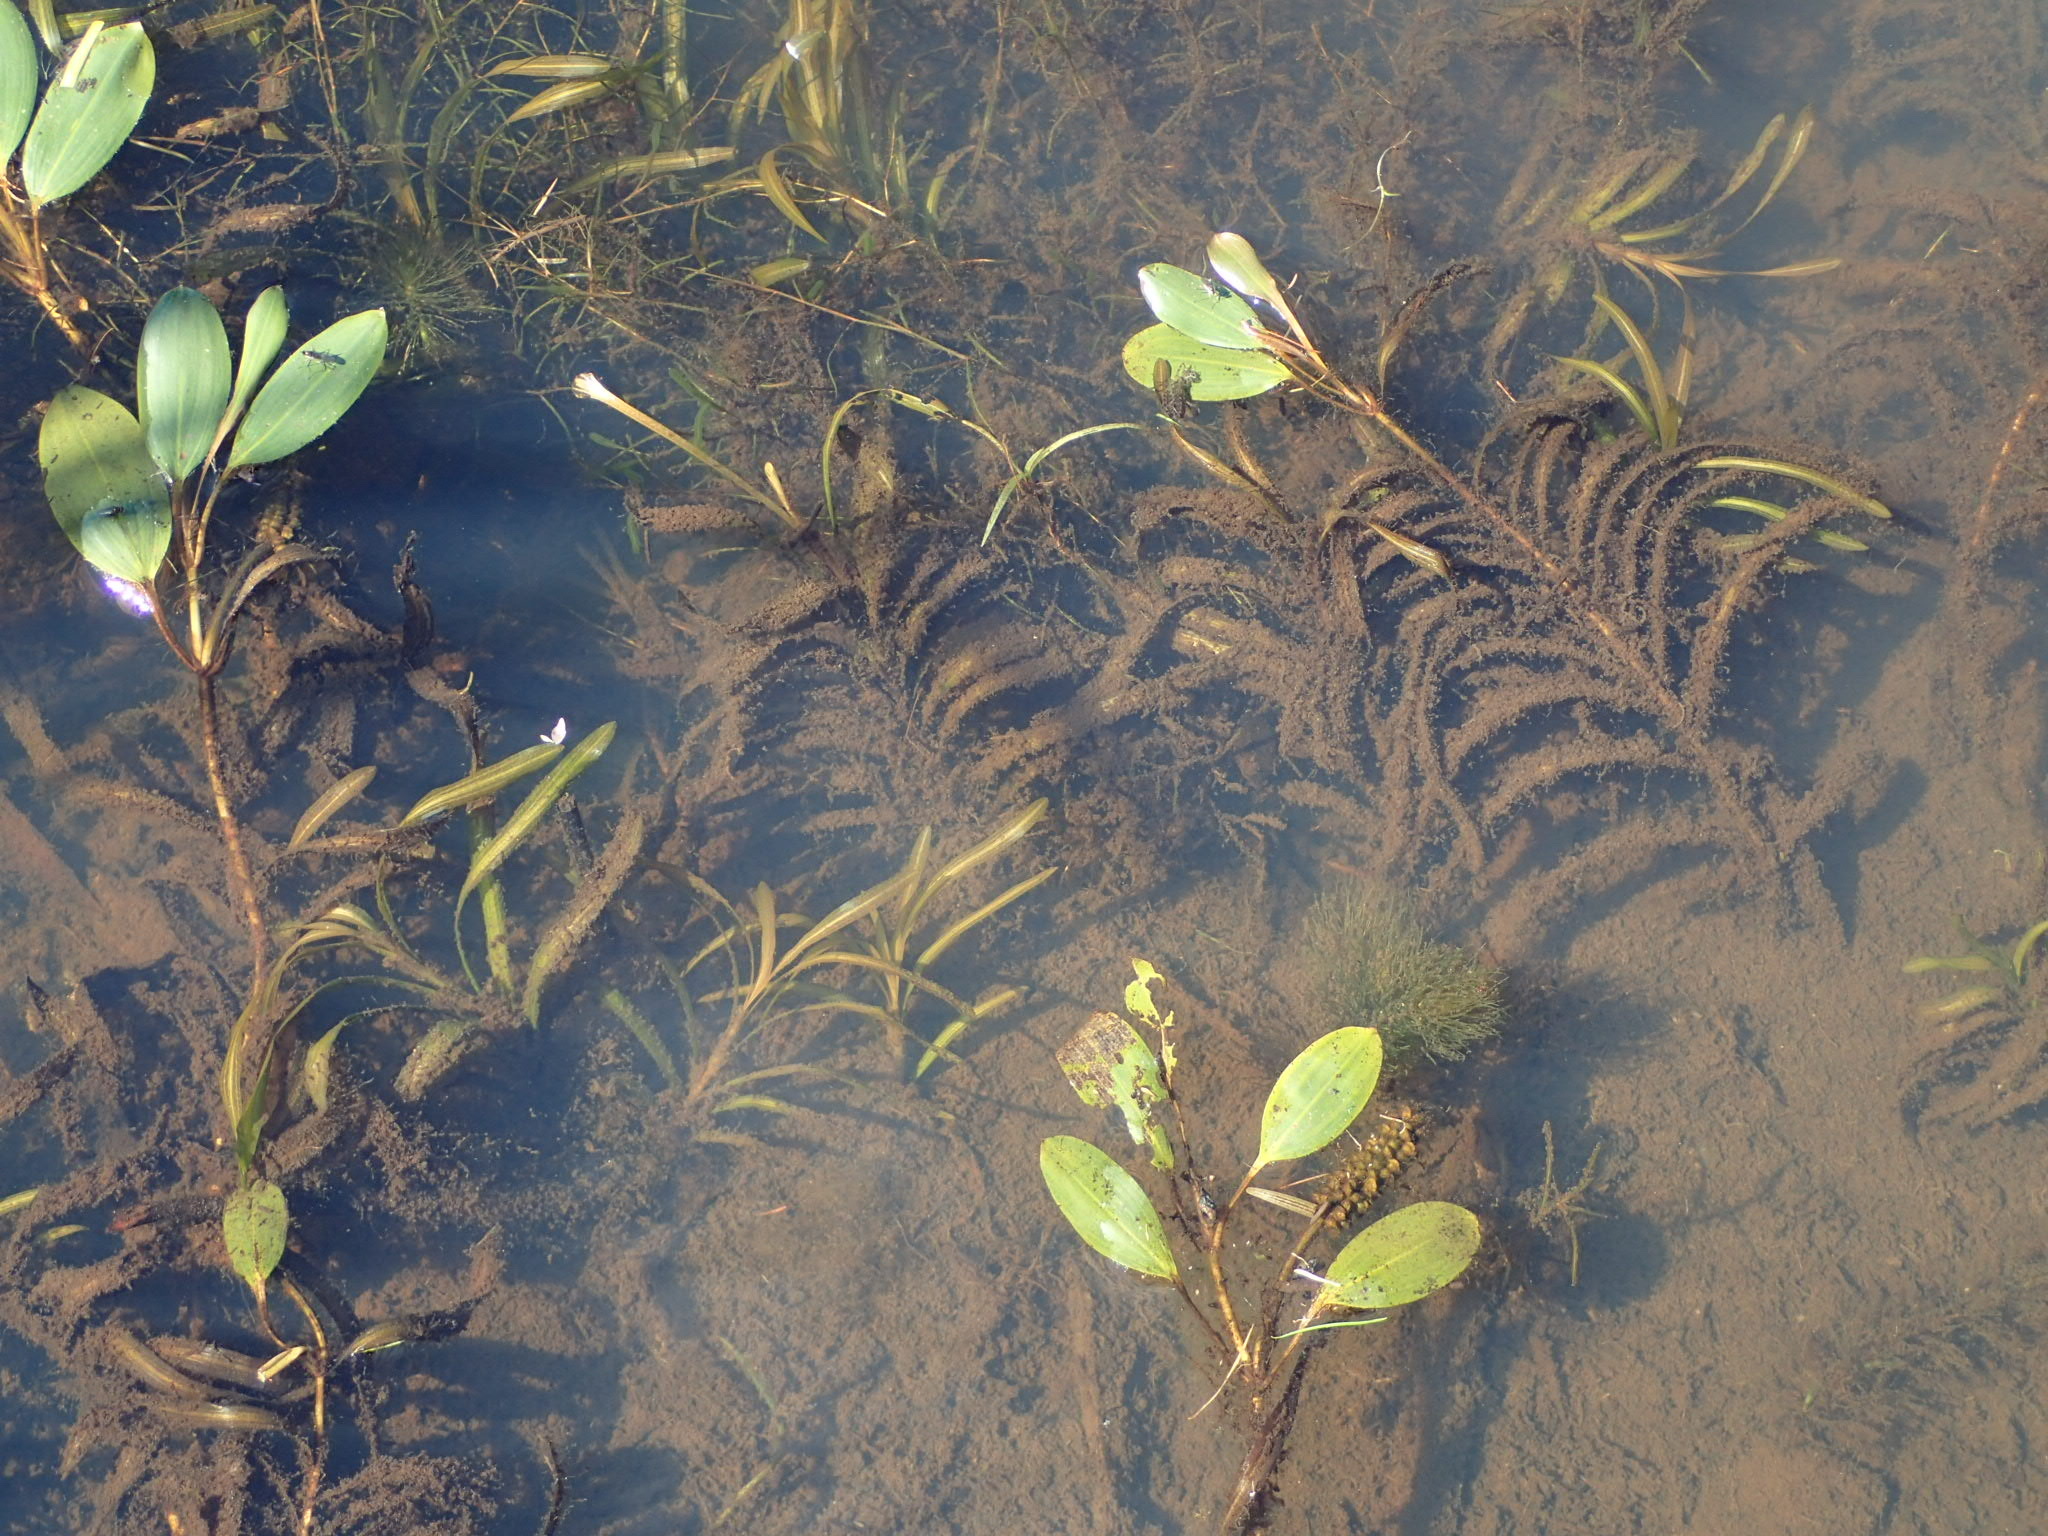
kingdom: Plantae
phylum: Tracheophyta
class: Liliopsida
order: Alismatales
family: Potamogetonaceae
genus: Potamogeton
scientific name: Potamogeton epihydrus
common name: American pondweed
